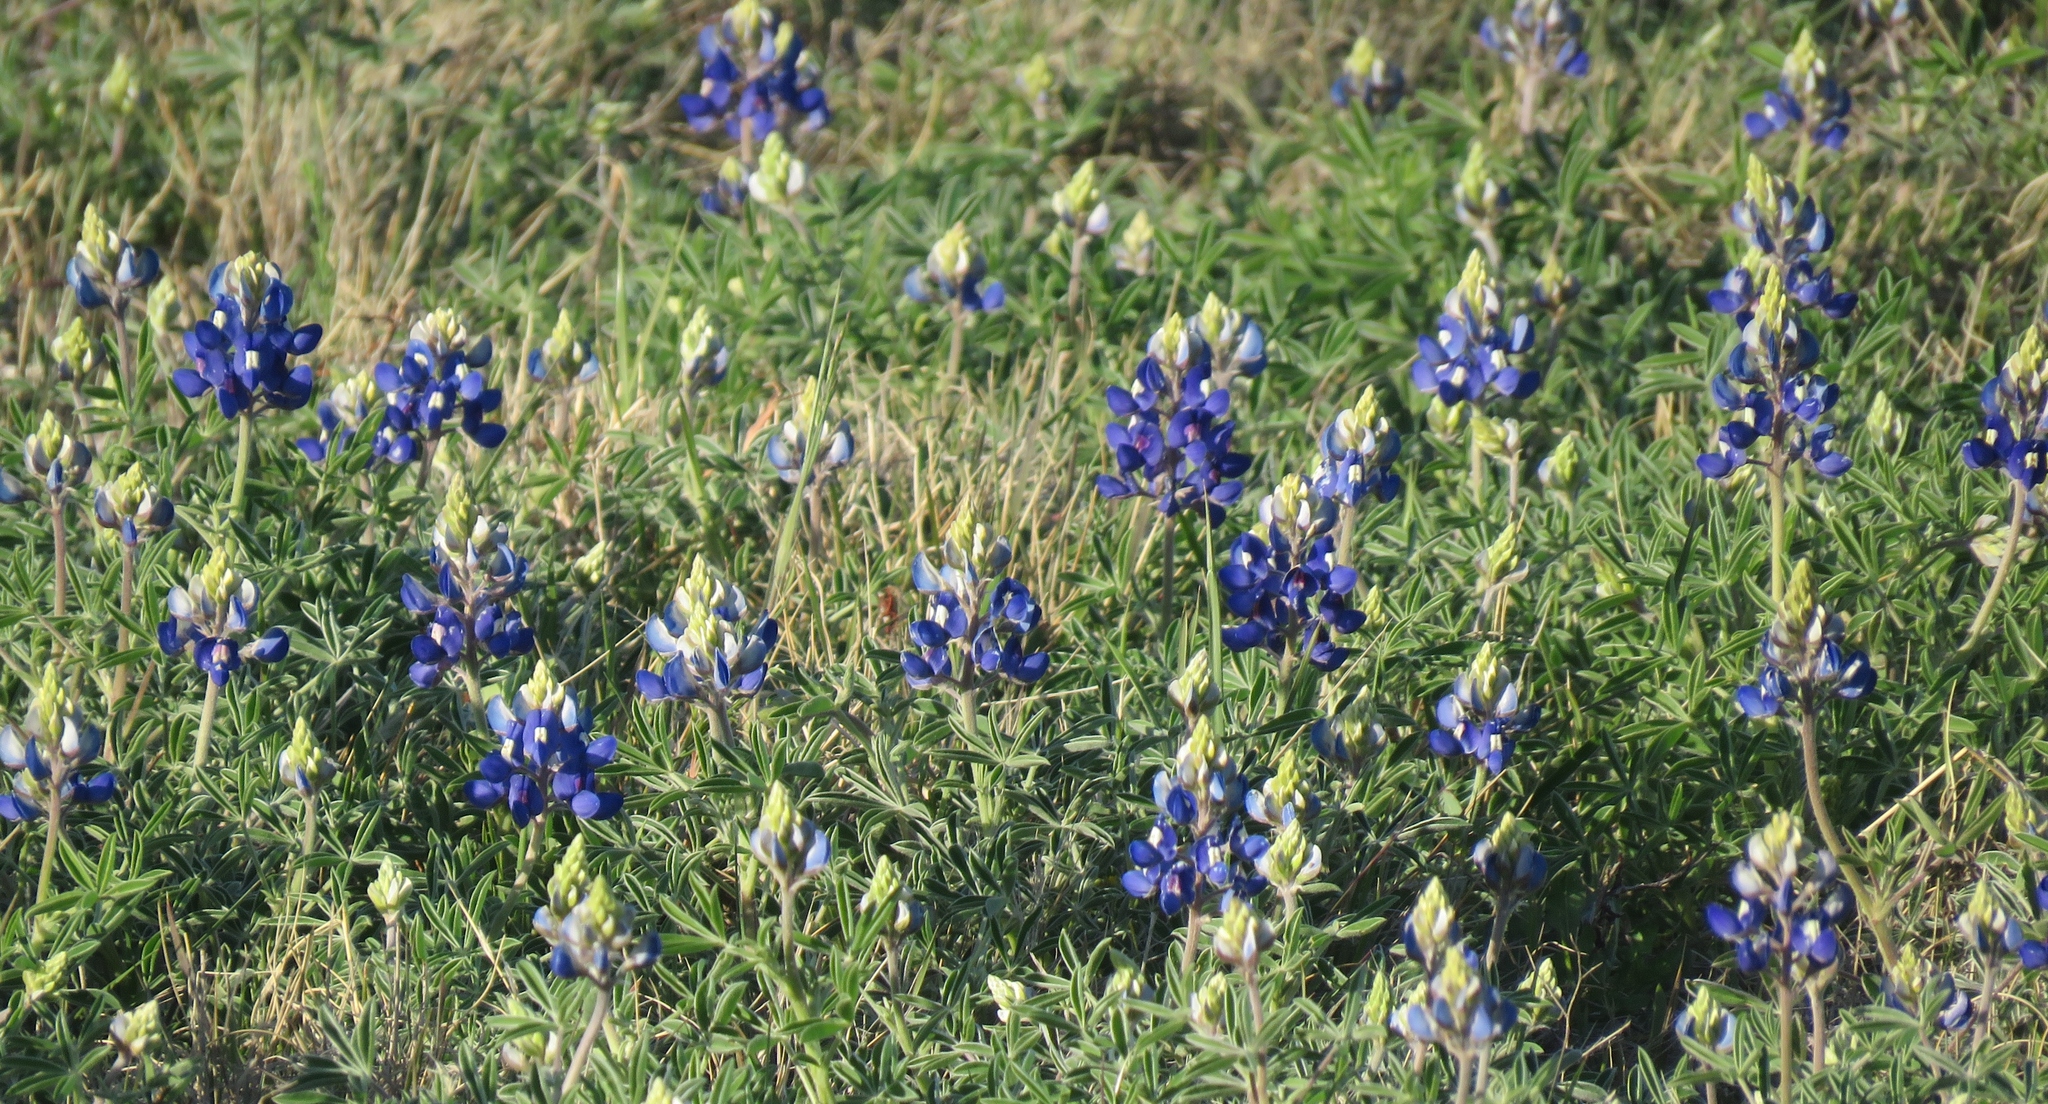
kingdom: Plantae
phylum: Tracheophyta
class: Magnoliopsida
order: Fabales
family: Fabaceae
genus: Lupinus
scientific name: Lupinus texensis
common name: Texas bluebonnet
